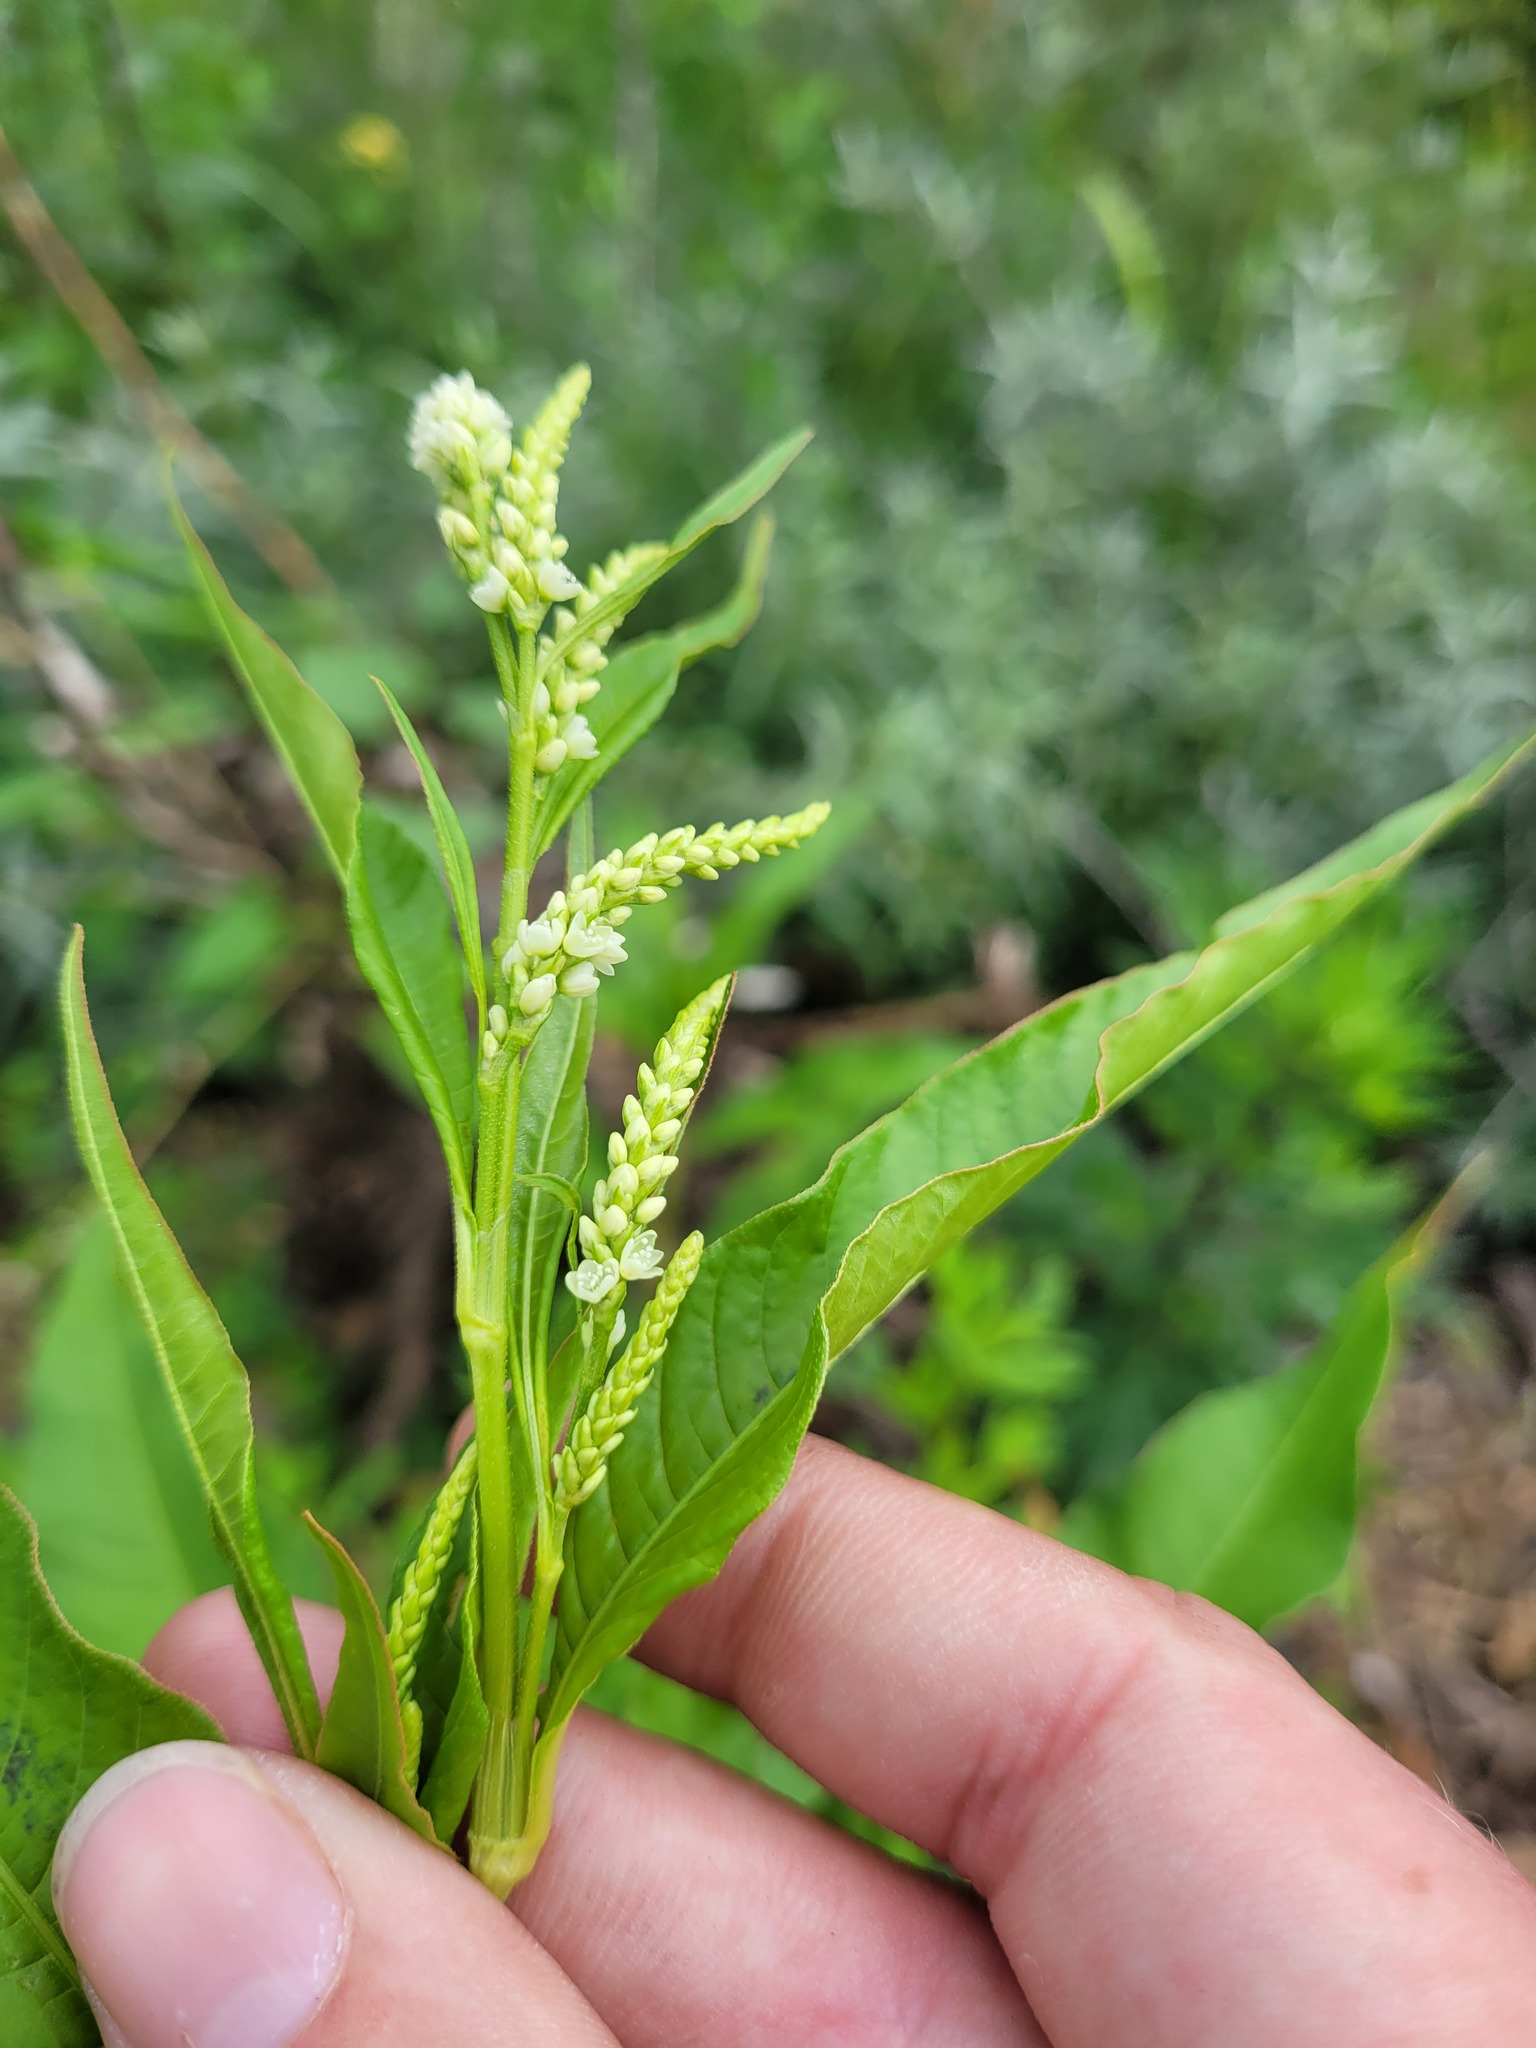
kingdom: Plantae
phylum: Tracheophyta
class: Magnoliopsida
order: Caryophyllales
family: Polygonaceae
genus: Persicaria
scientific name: Persicaria lapathifolia
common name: Curlytop knotweed
